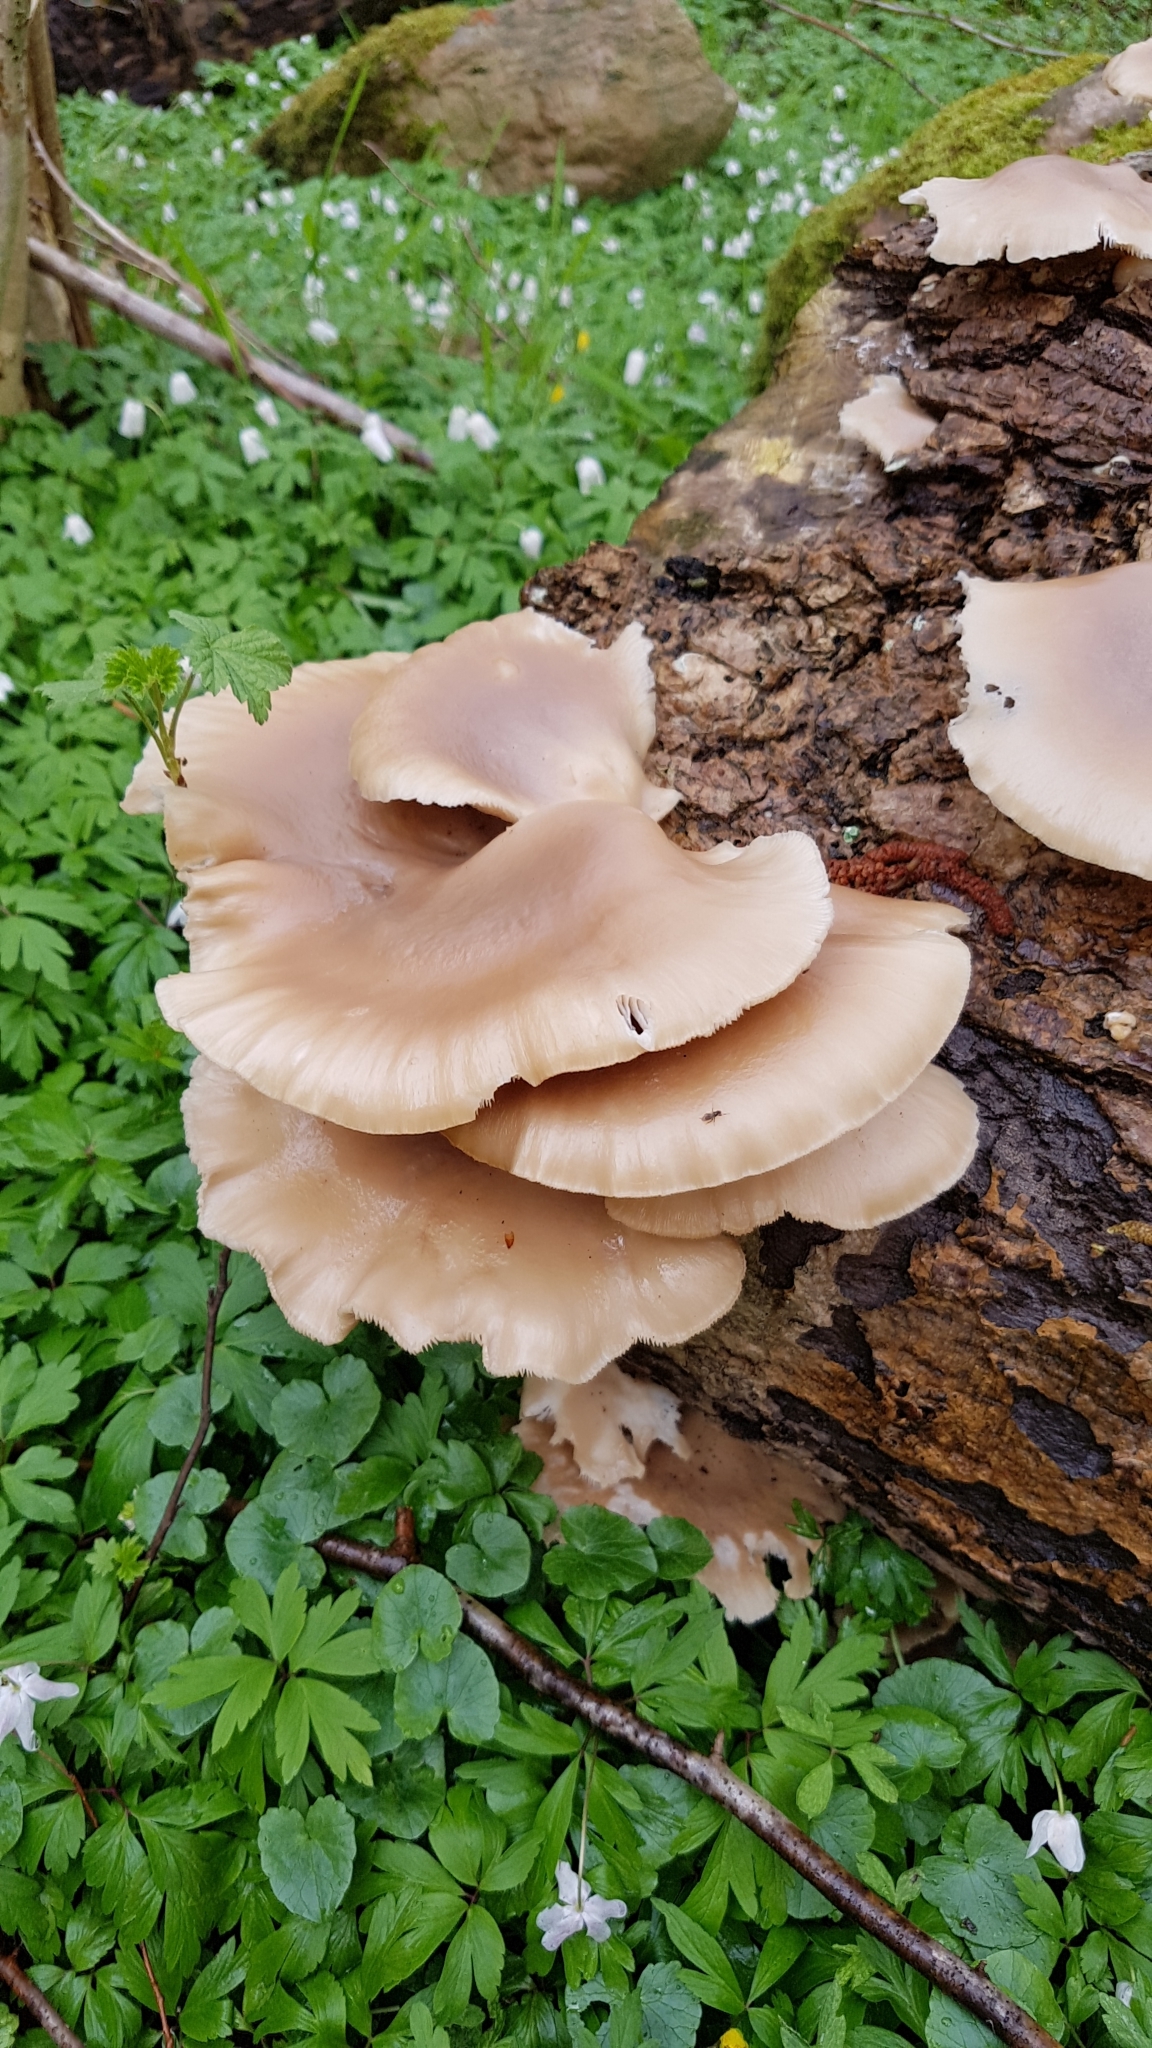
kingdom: Fungi
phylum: Basidiomycota
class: Agaricomycetes
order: Agaricales
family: Pleurotaceae
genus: Pleurotus
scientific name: Pleurotus pulmonarius
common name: Pale oyster
